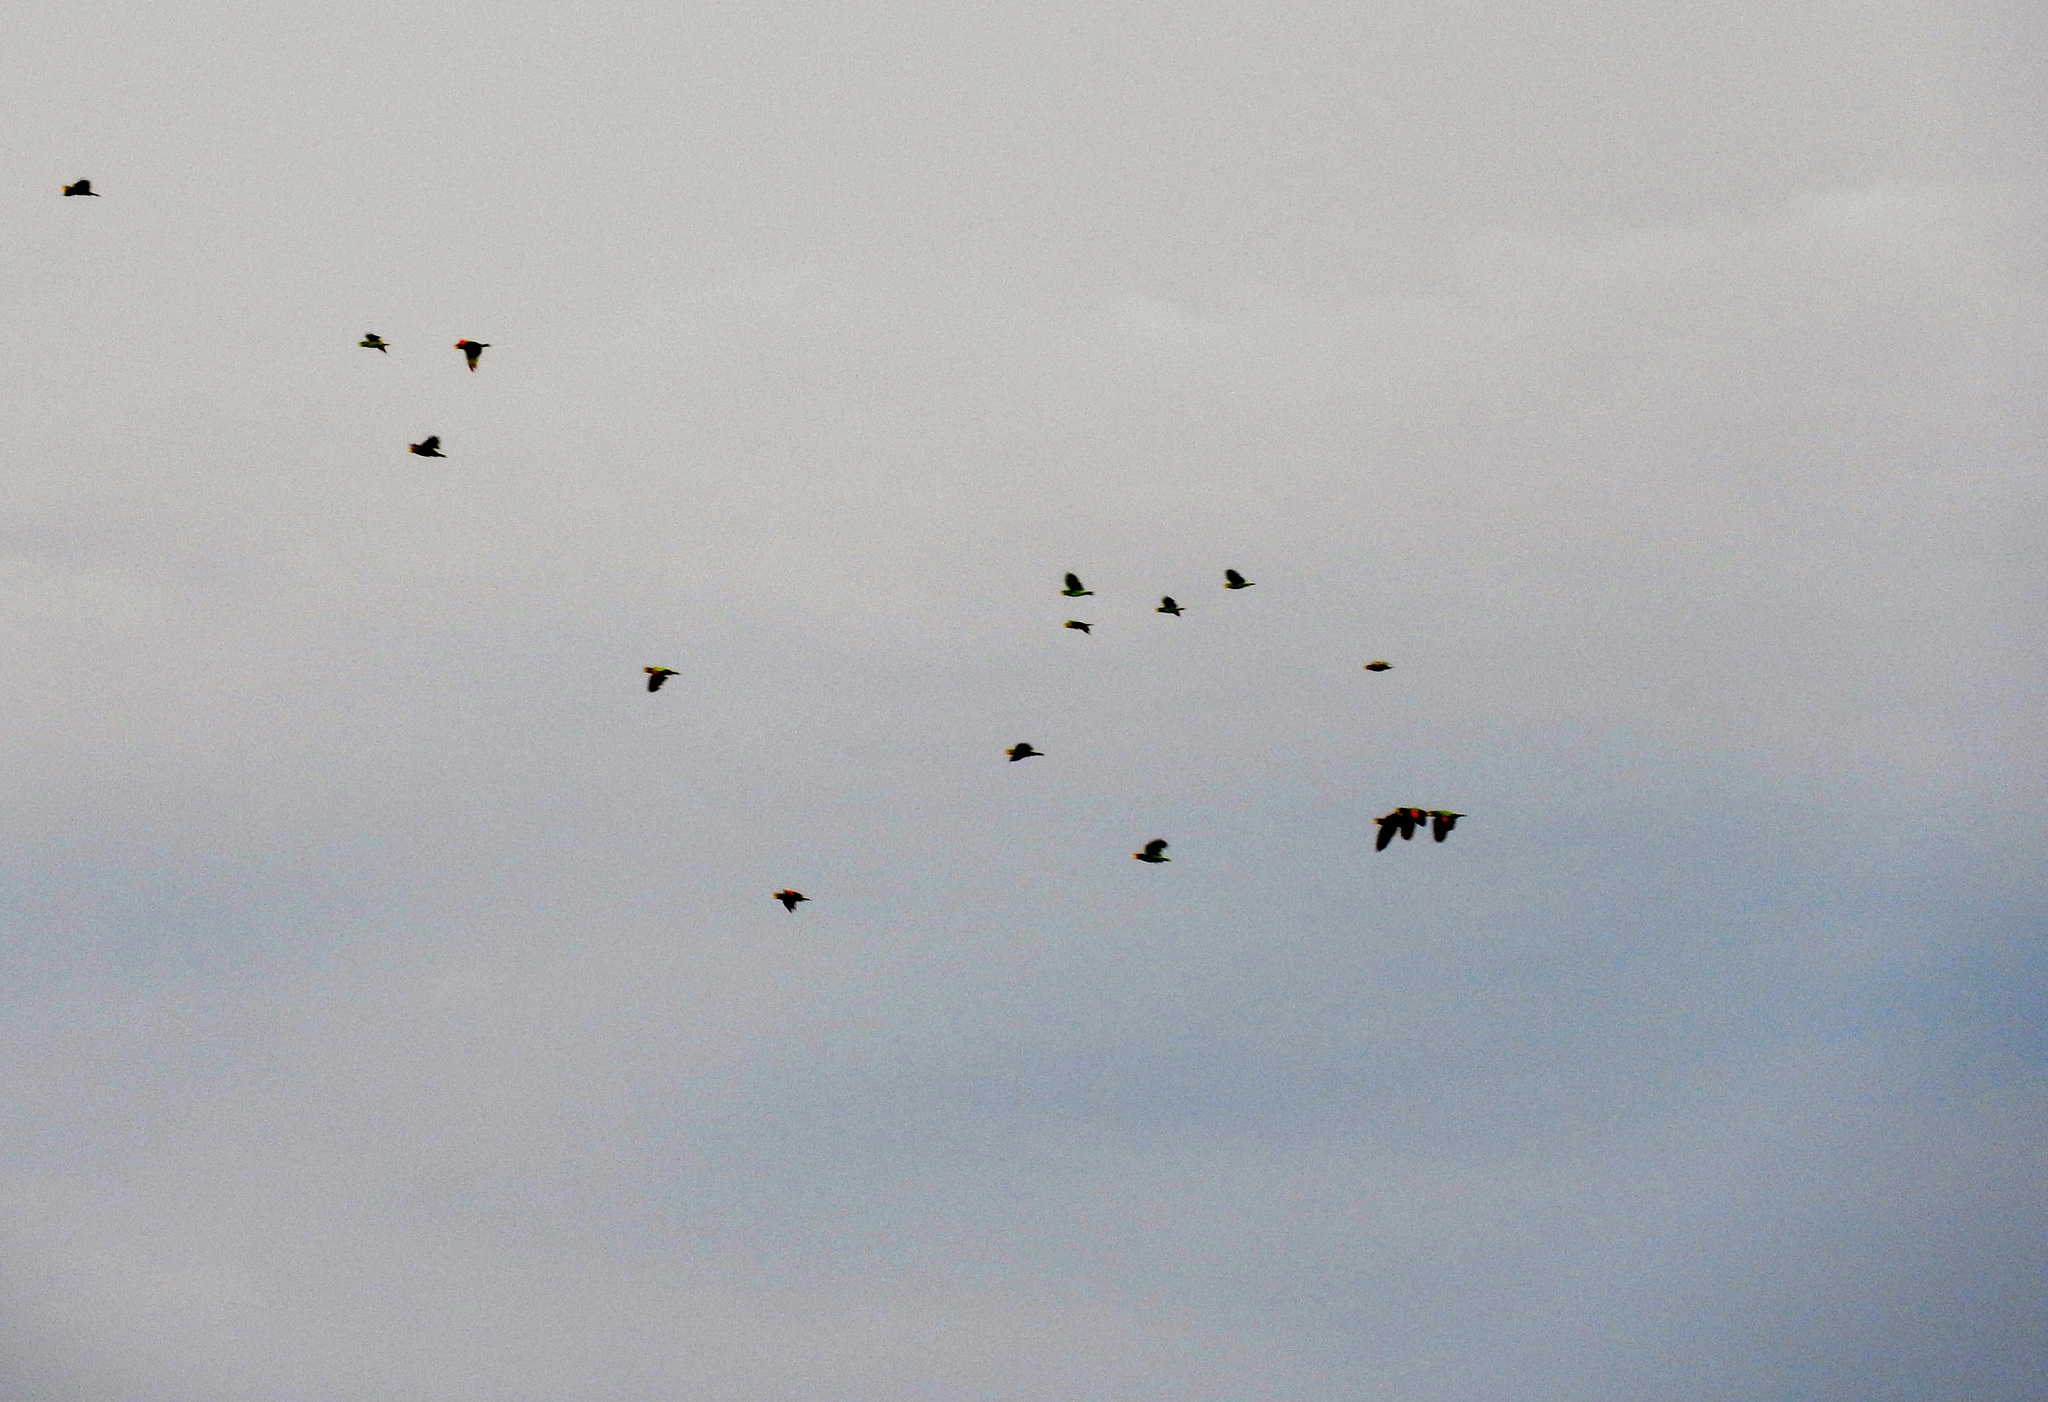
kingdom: Animalia
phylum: Chordata
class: Aves
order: Psittaciformes
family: Psittacidae
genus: Amazona
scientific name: Amazona albifrons
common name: White-fronted amazon
